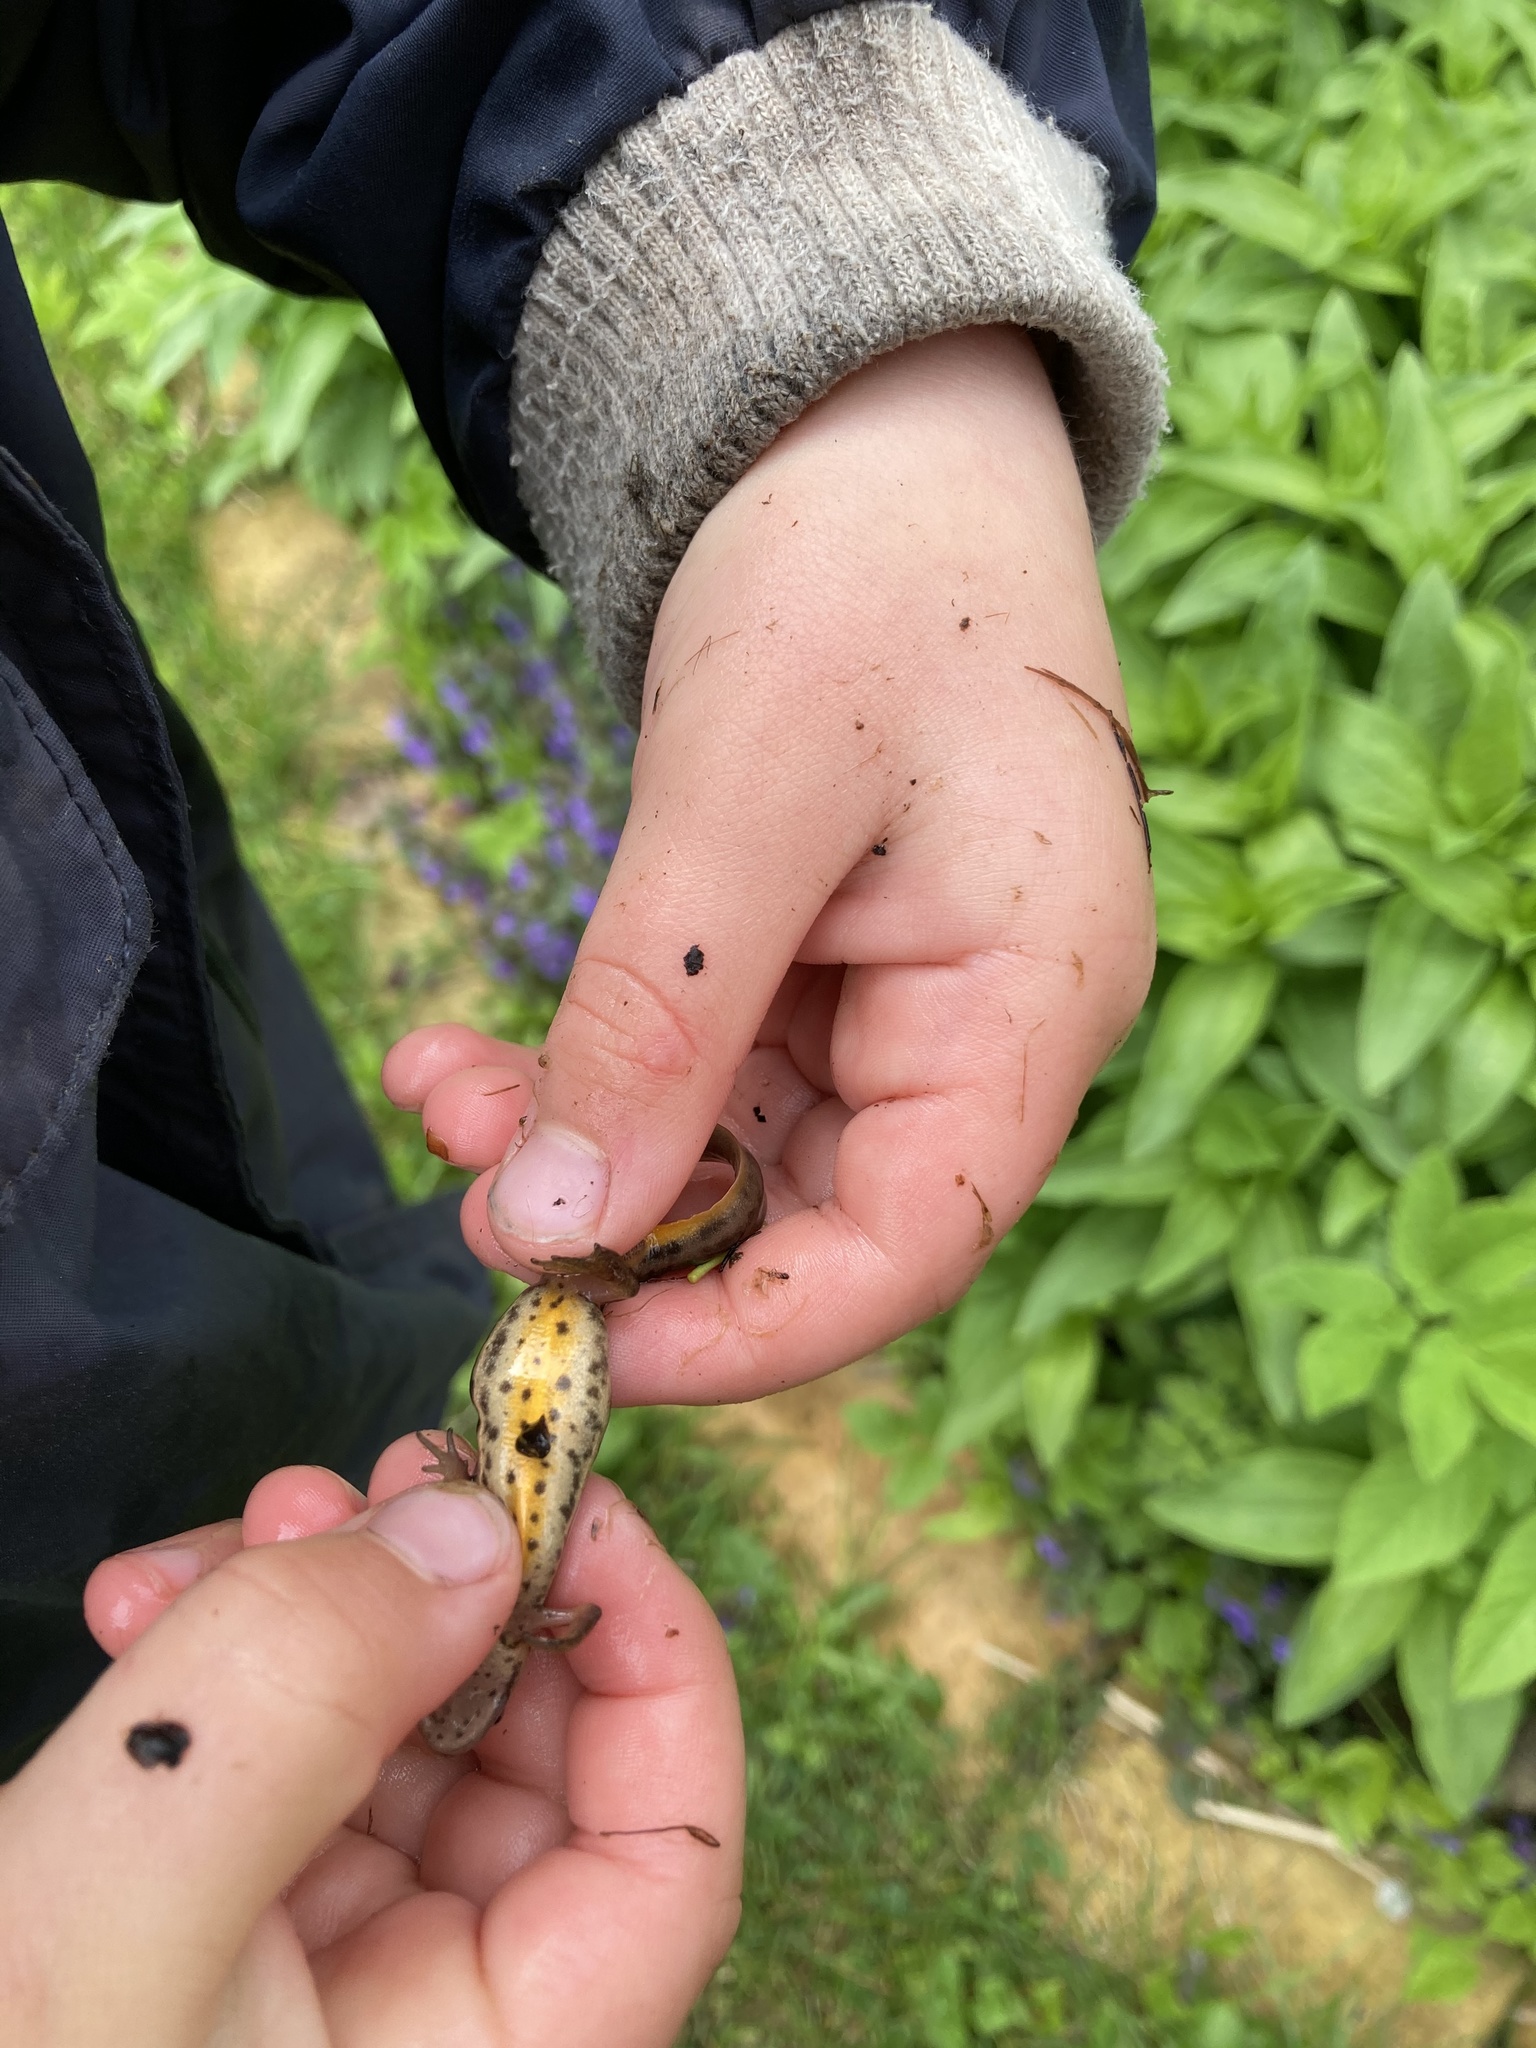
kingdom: Animalia
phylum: Chordata
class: Amphibia
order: Caudata
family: Salamandridae
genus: Lissotriton
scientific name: Lissotriton vulgaris
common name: Smooth newt
